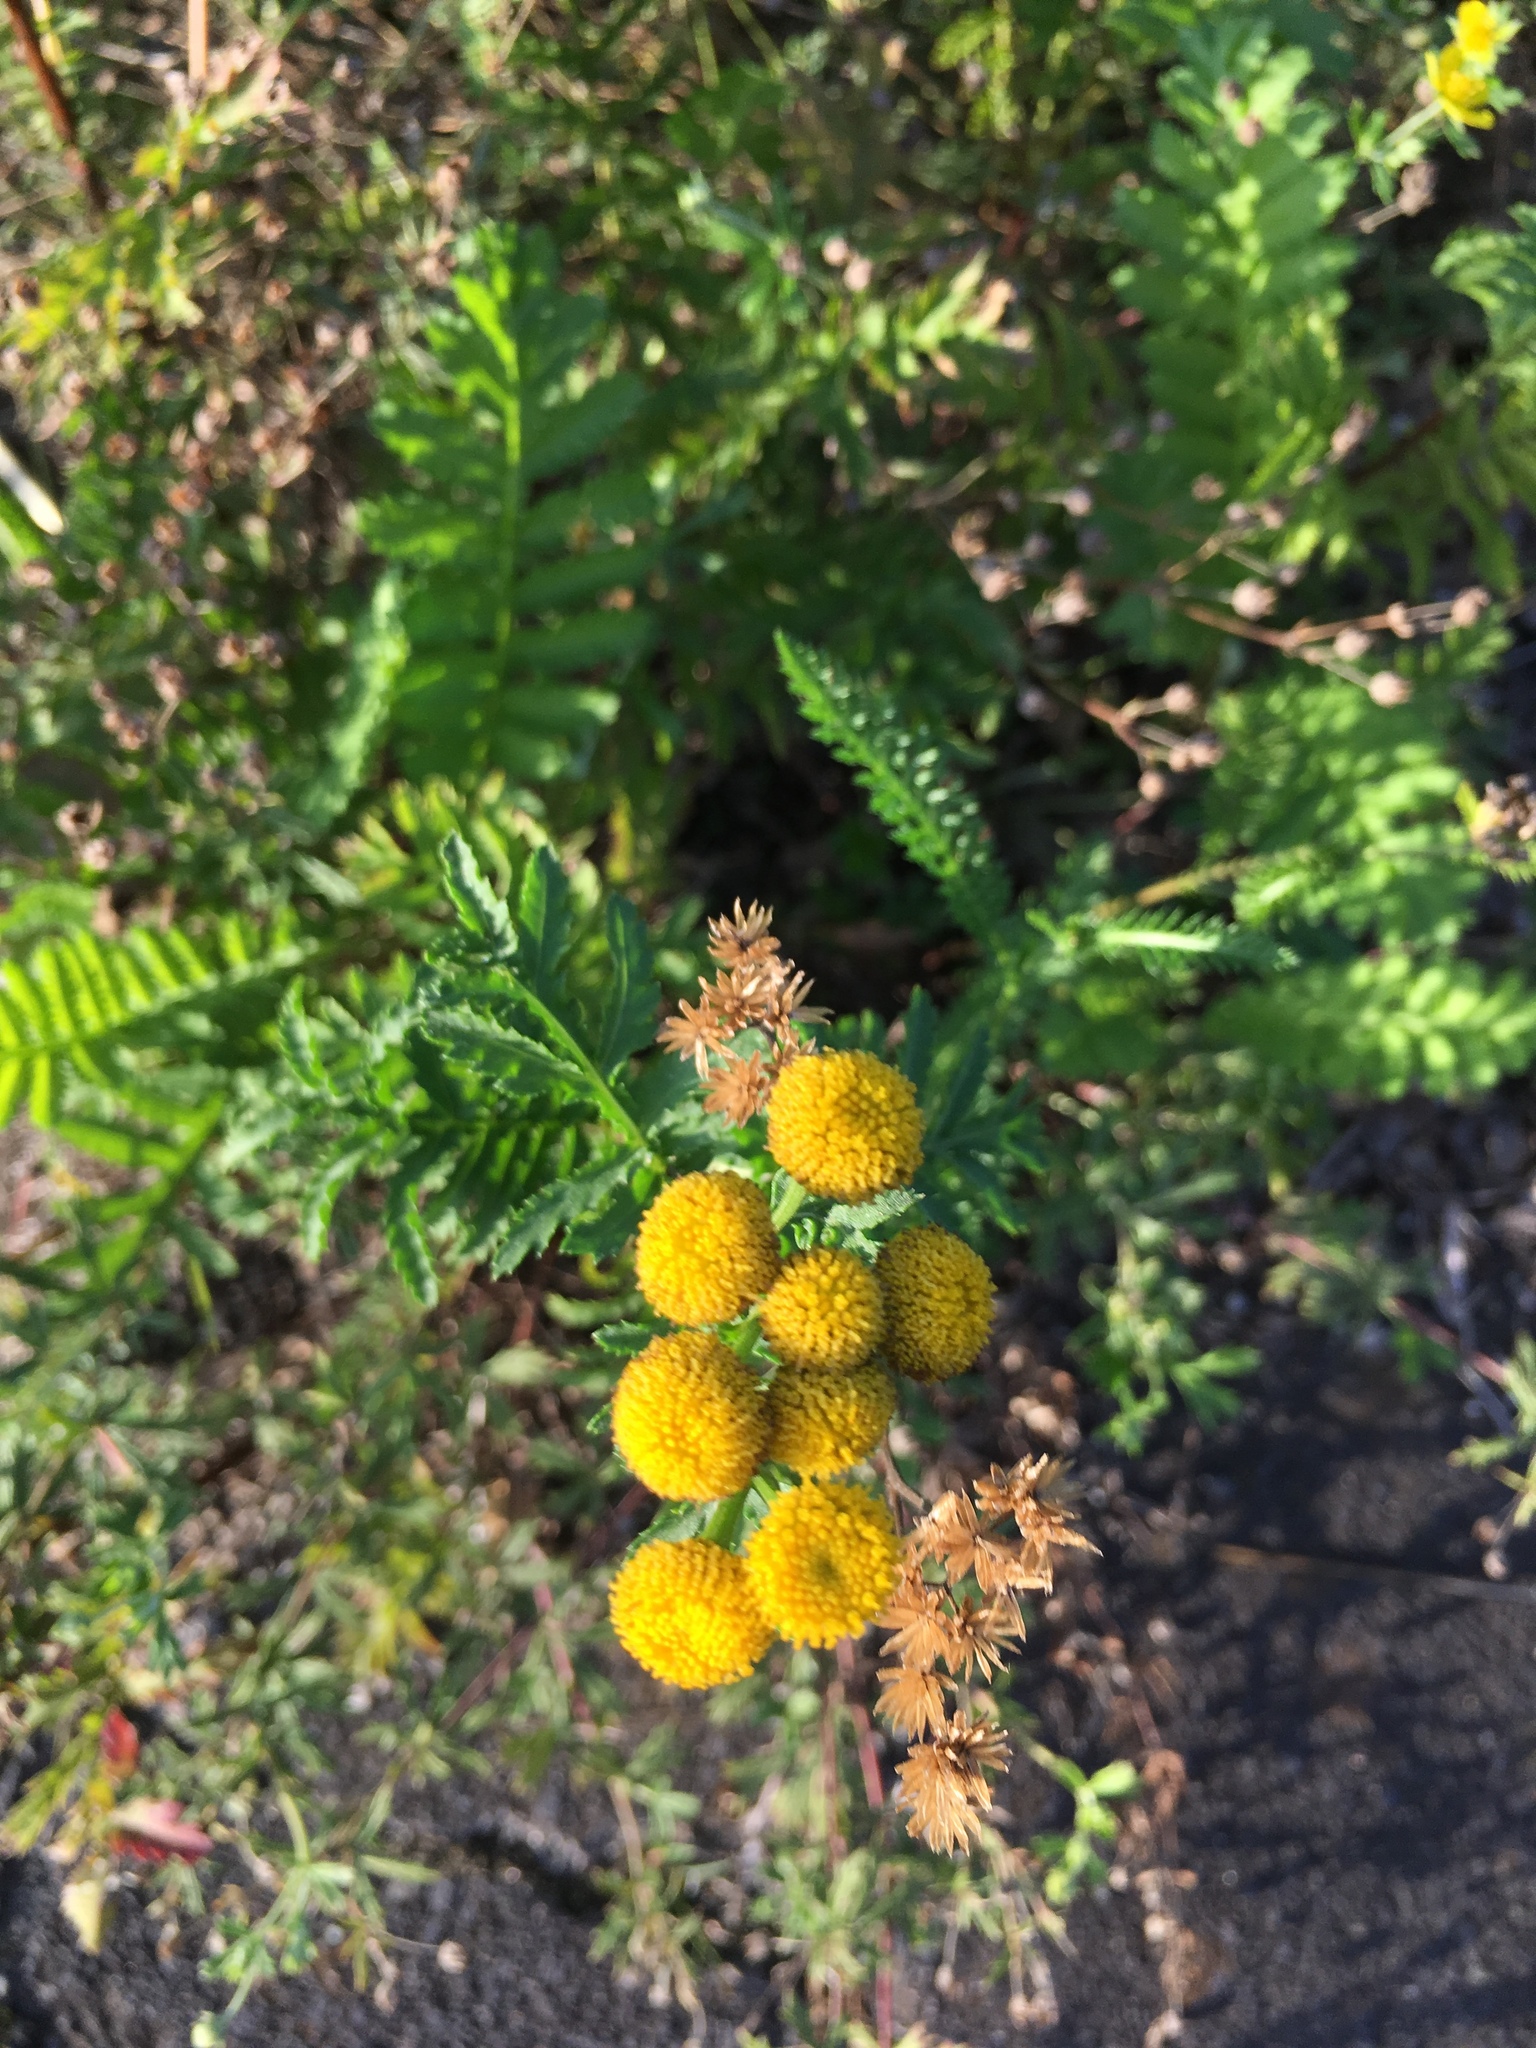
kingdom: Plantae
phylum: Tracheophyta
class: Magnoliopsida
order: Asterales
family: Asteraceae
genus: Tanacetum
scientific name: Tanacetum vulgare
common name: Common tansy
